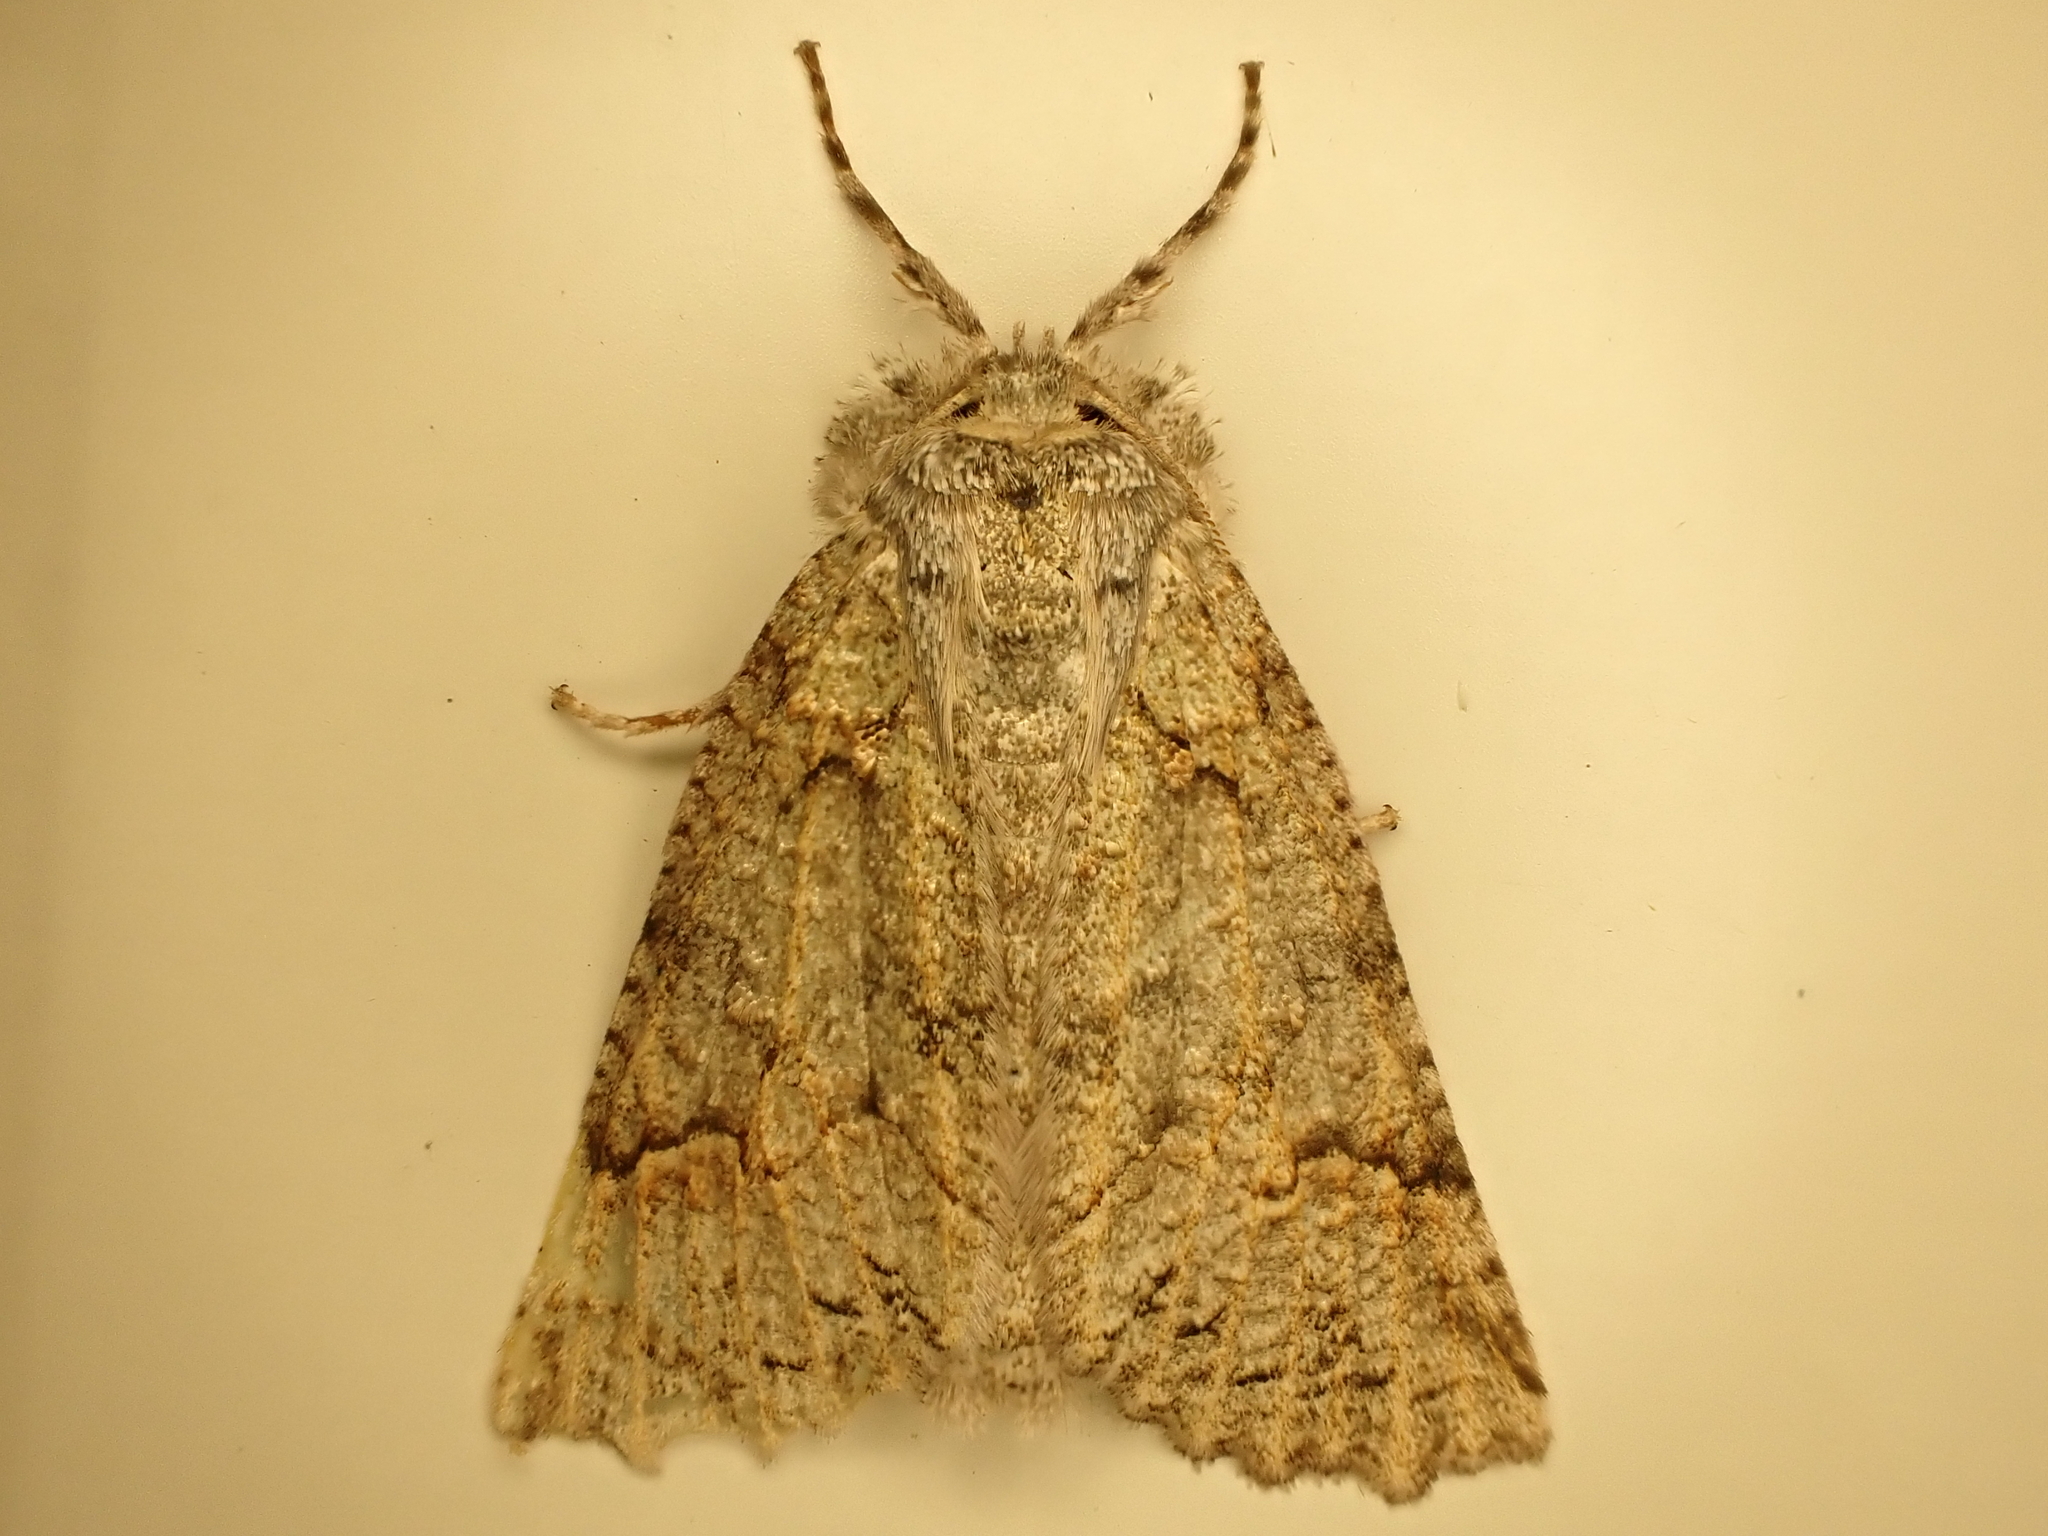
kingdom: Animalia
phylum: Arthropoda
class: Insecta
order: Lepidoptera
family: Geometridae
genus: Declana
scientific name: Declana floccosa
